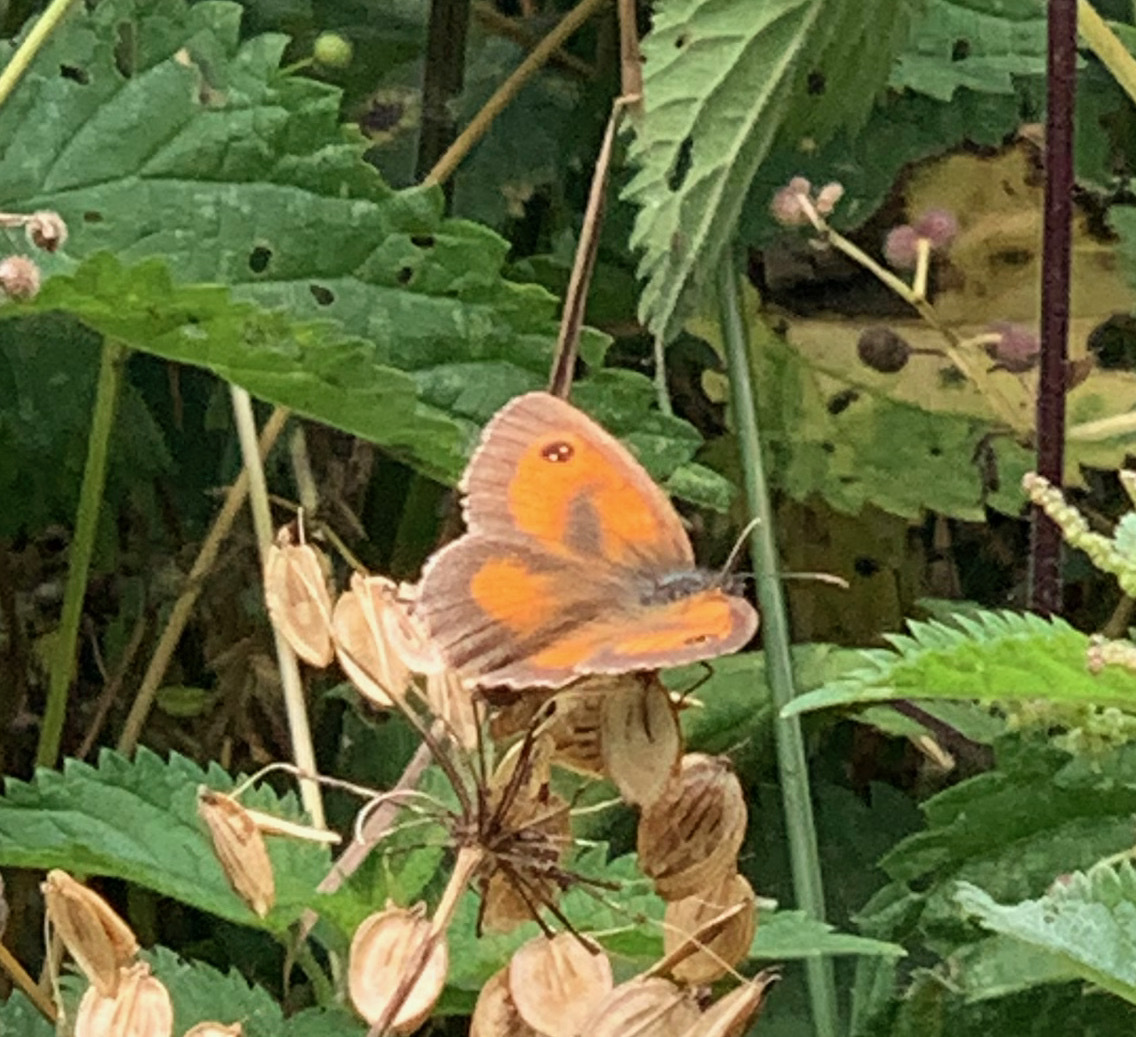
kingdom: Animalia
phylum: Arthropoda
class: Insecta
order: Lepidoptera
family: Nymphalidae
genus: Pyronia
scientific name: Pyronia tithonus
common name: Gatekeeper
